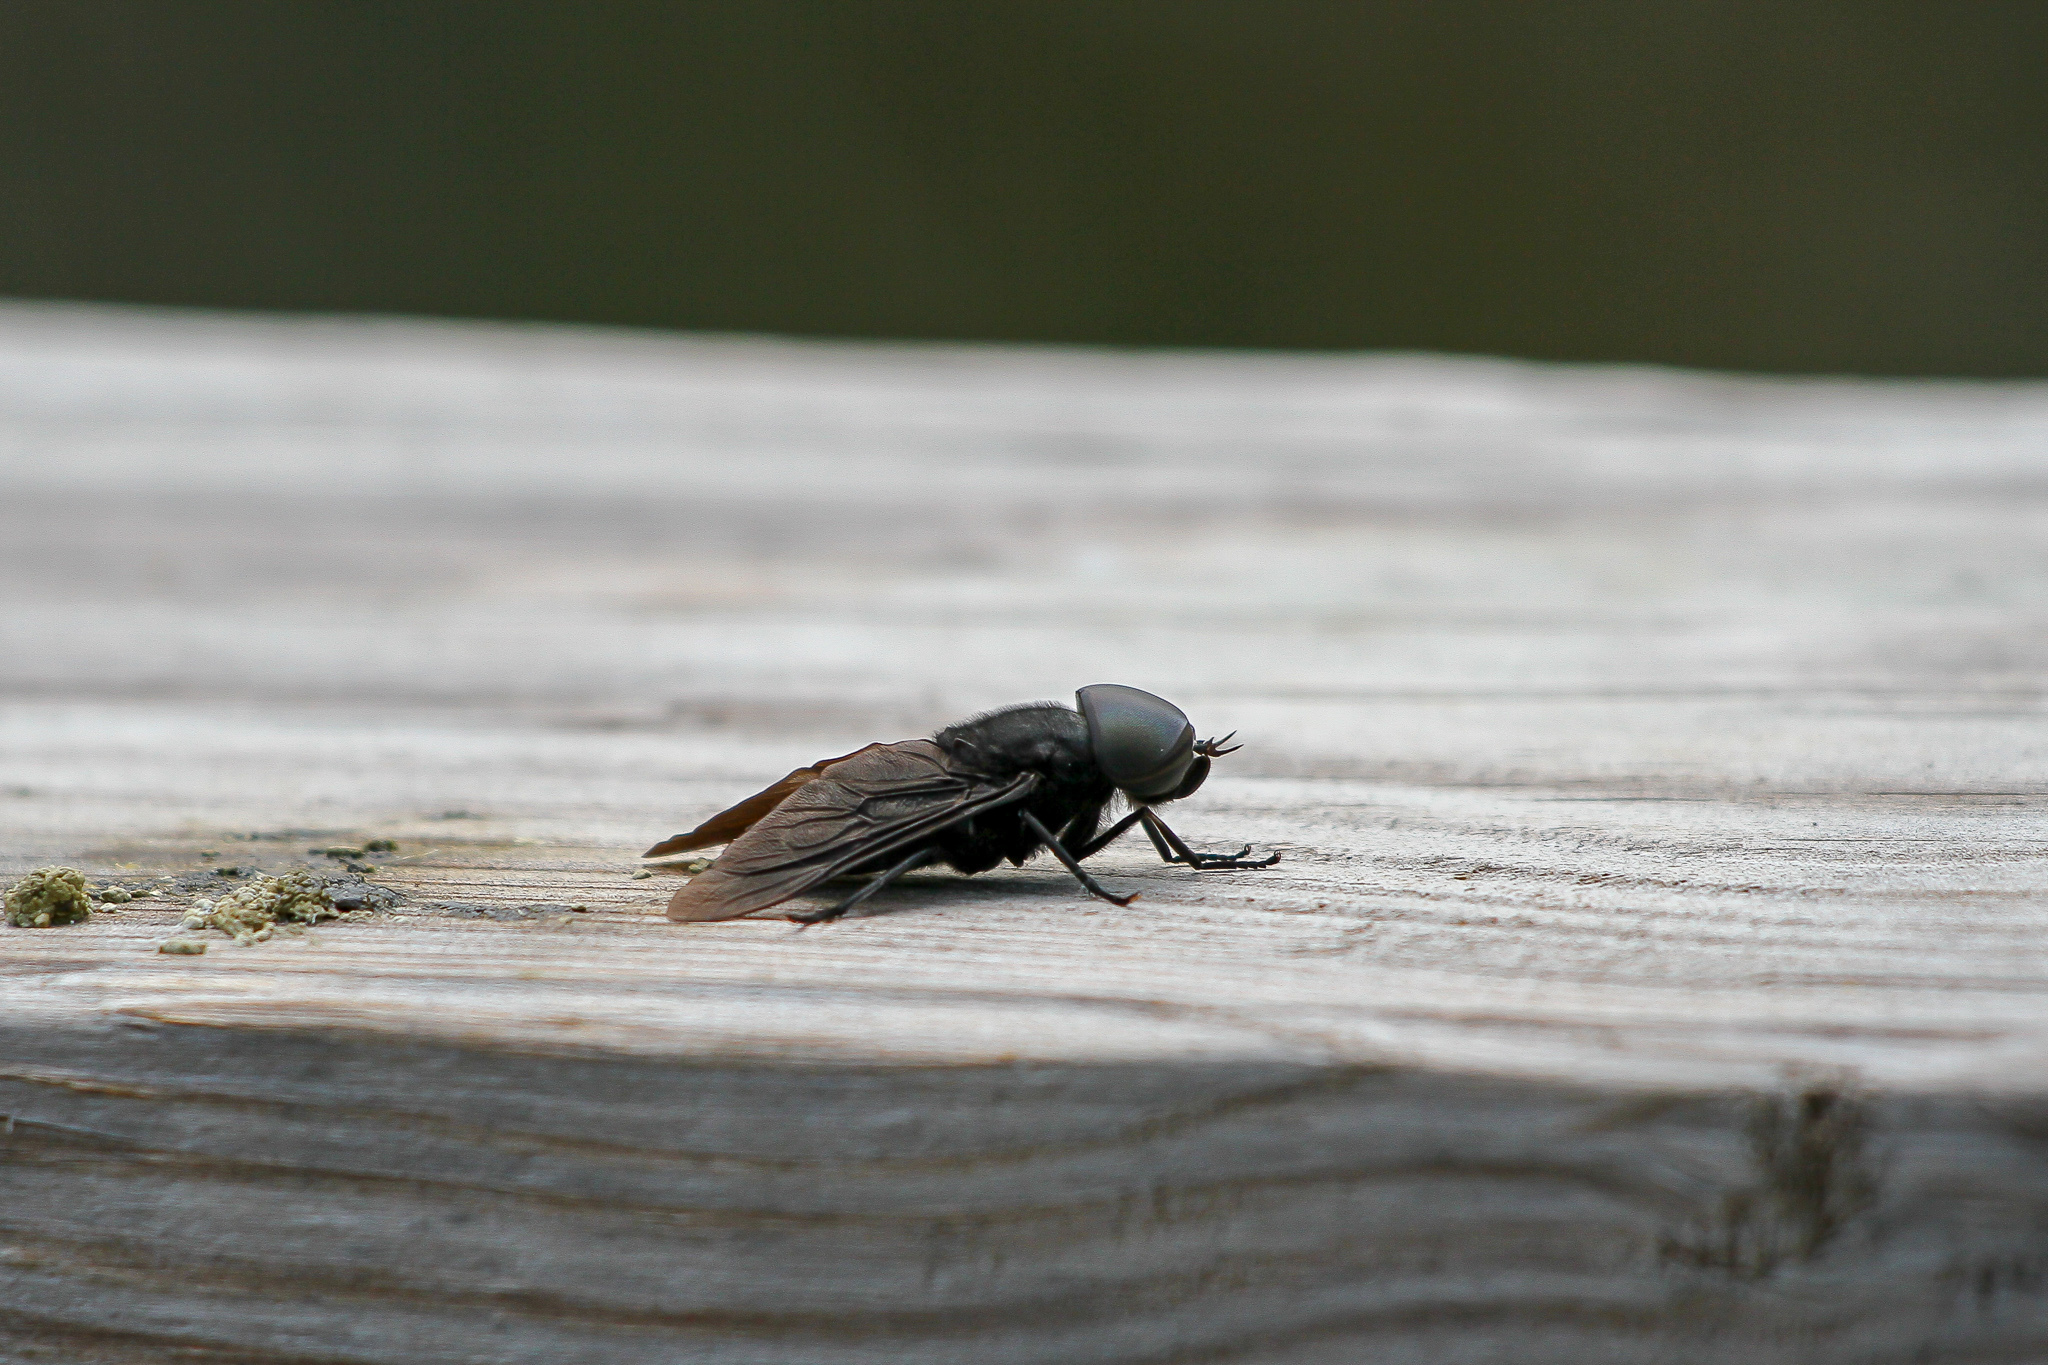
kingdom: Animalia
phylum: Arthropoda
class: Insecta
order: Diptera
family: Tabanidae
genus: Tabanus
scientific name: Tabanus atratus
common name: Black horse fly
